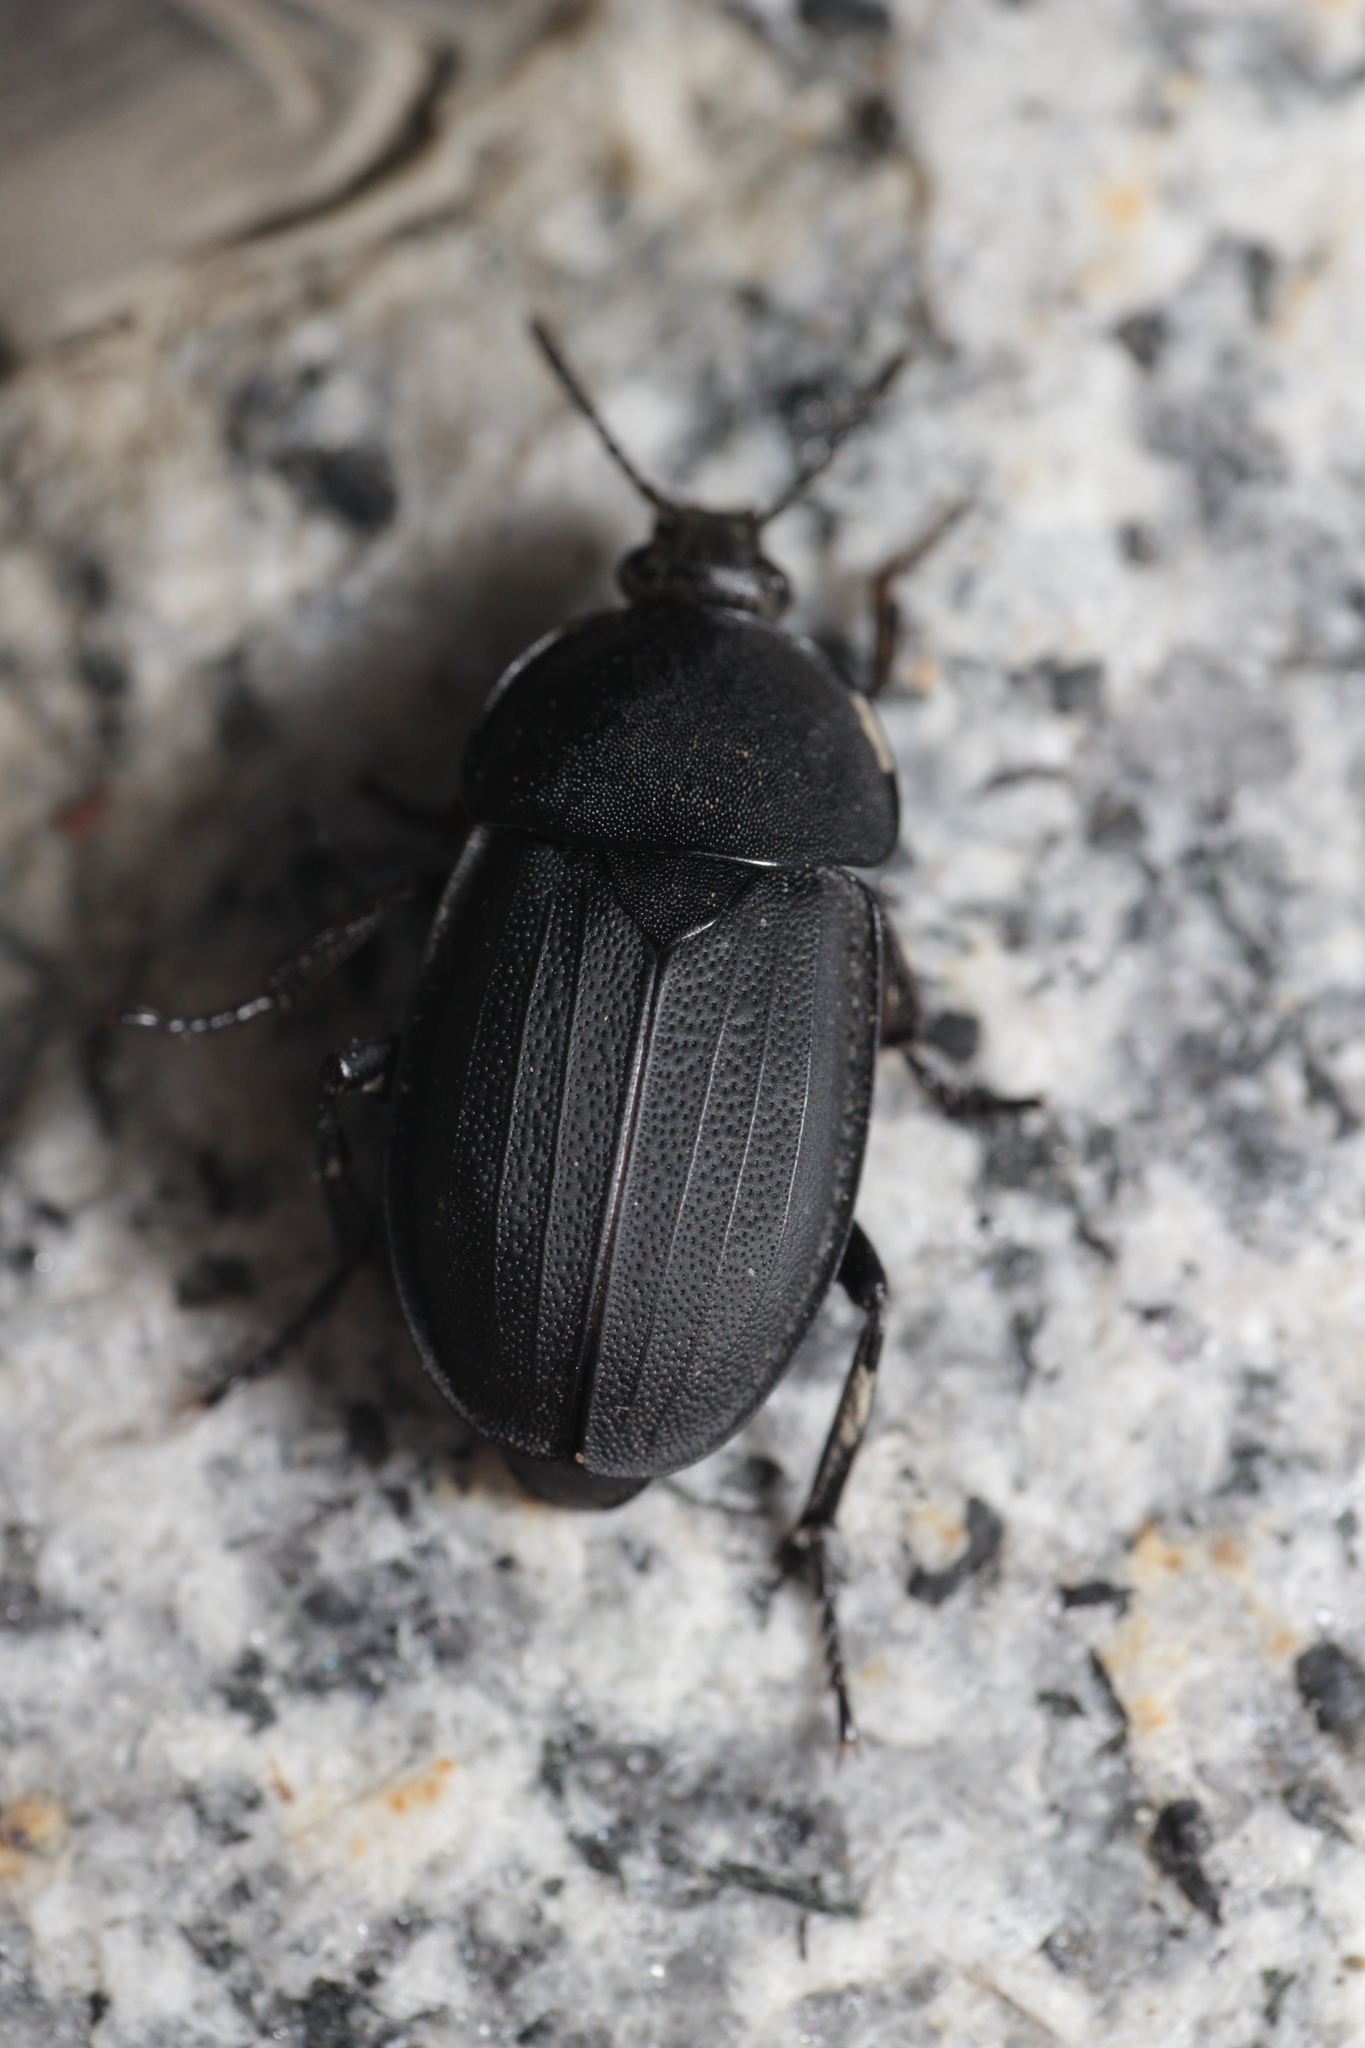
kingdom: Animalia
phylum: Arthropoda
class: Insecta
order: Coleoptera
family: Staphylinidae
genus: Silpha
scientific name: Silpha obscura
